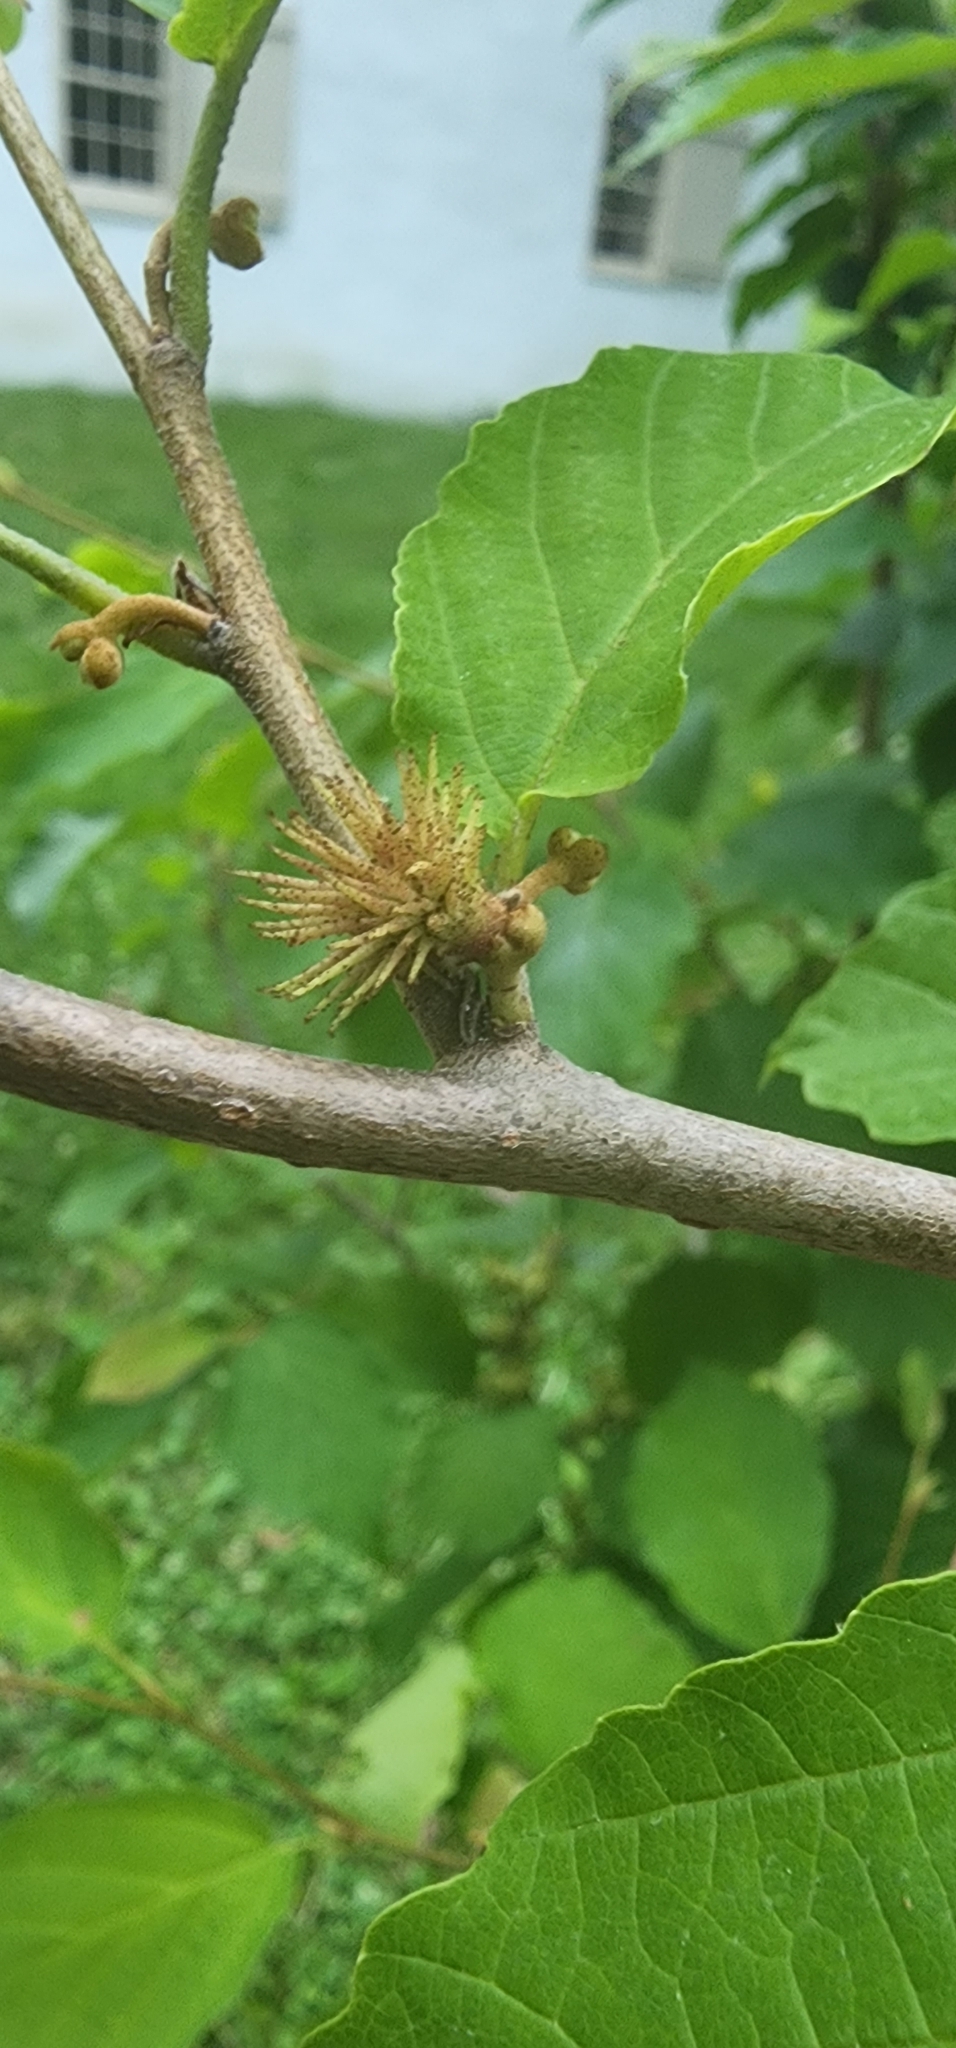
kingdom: Animalia
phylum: Arthropoda
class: Insecta
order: Hemiptera
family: Aphididae
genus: Hamamelistes
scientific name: Hamamelistes spinosus
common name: Witch hazel gall aphid
